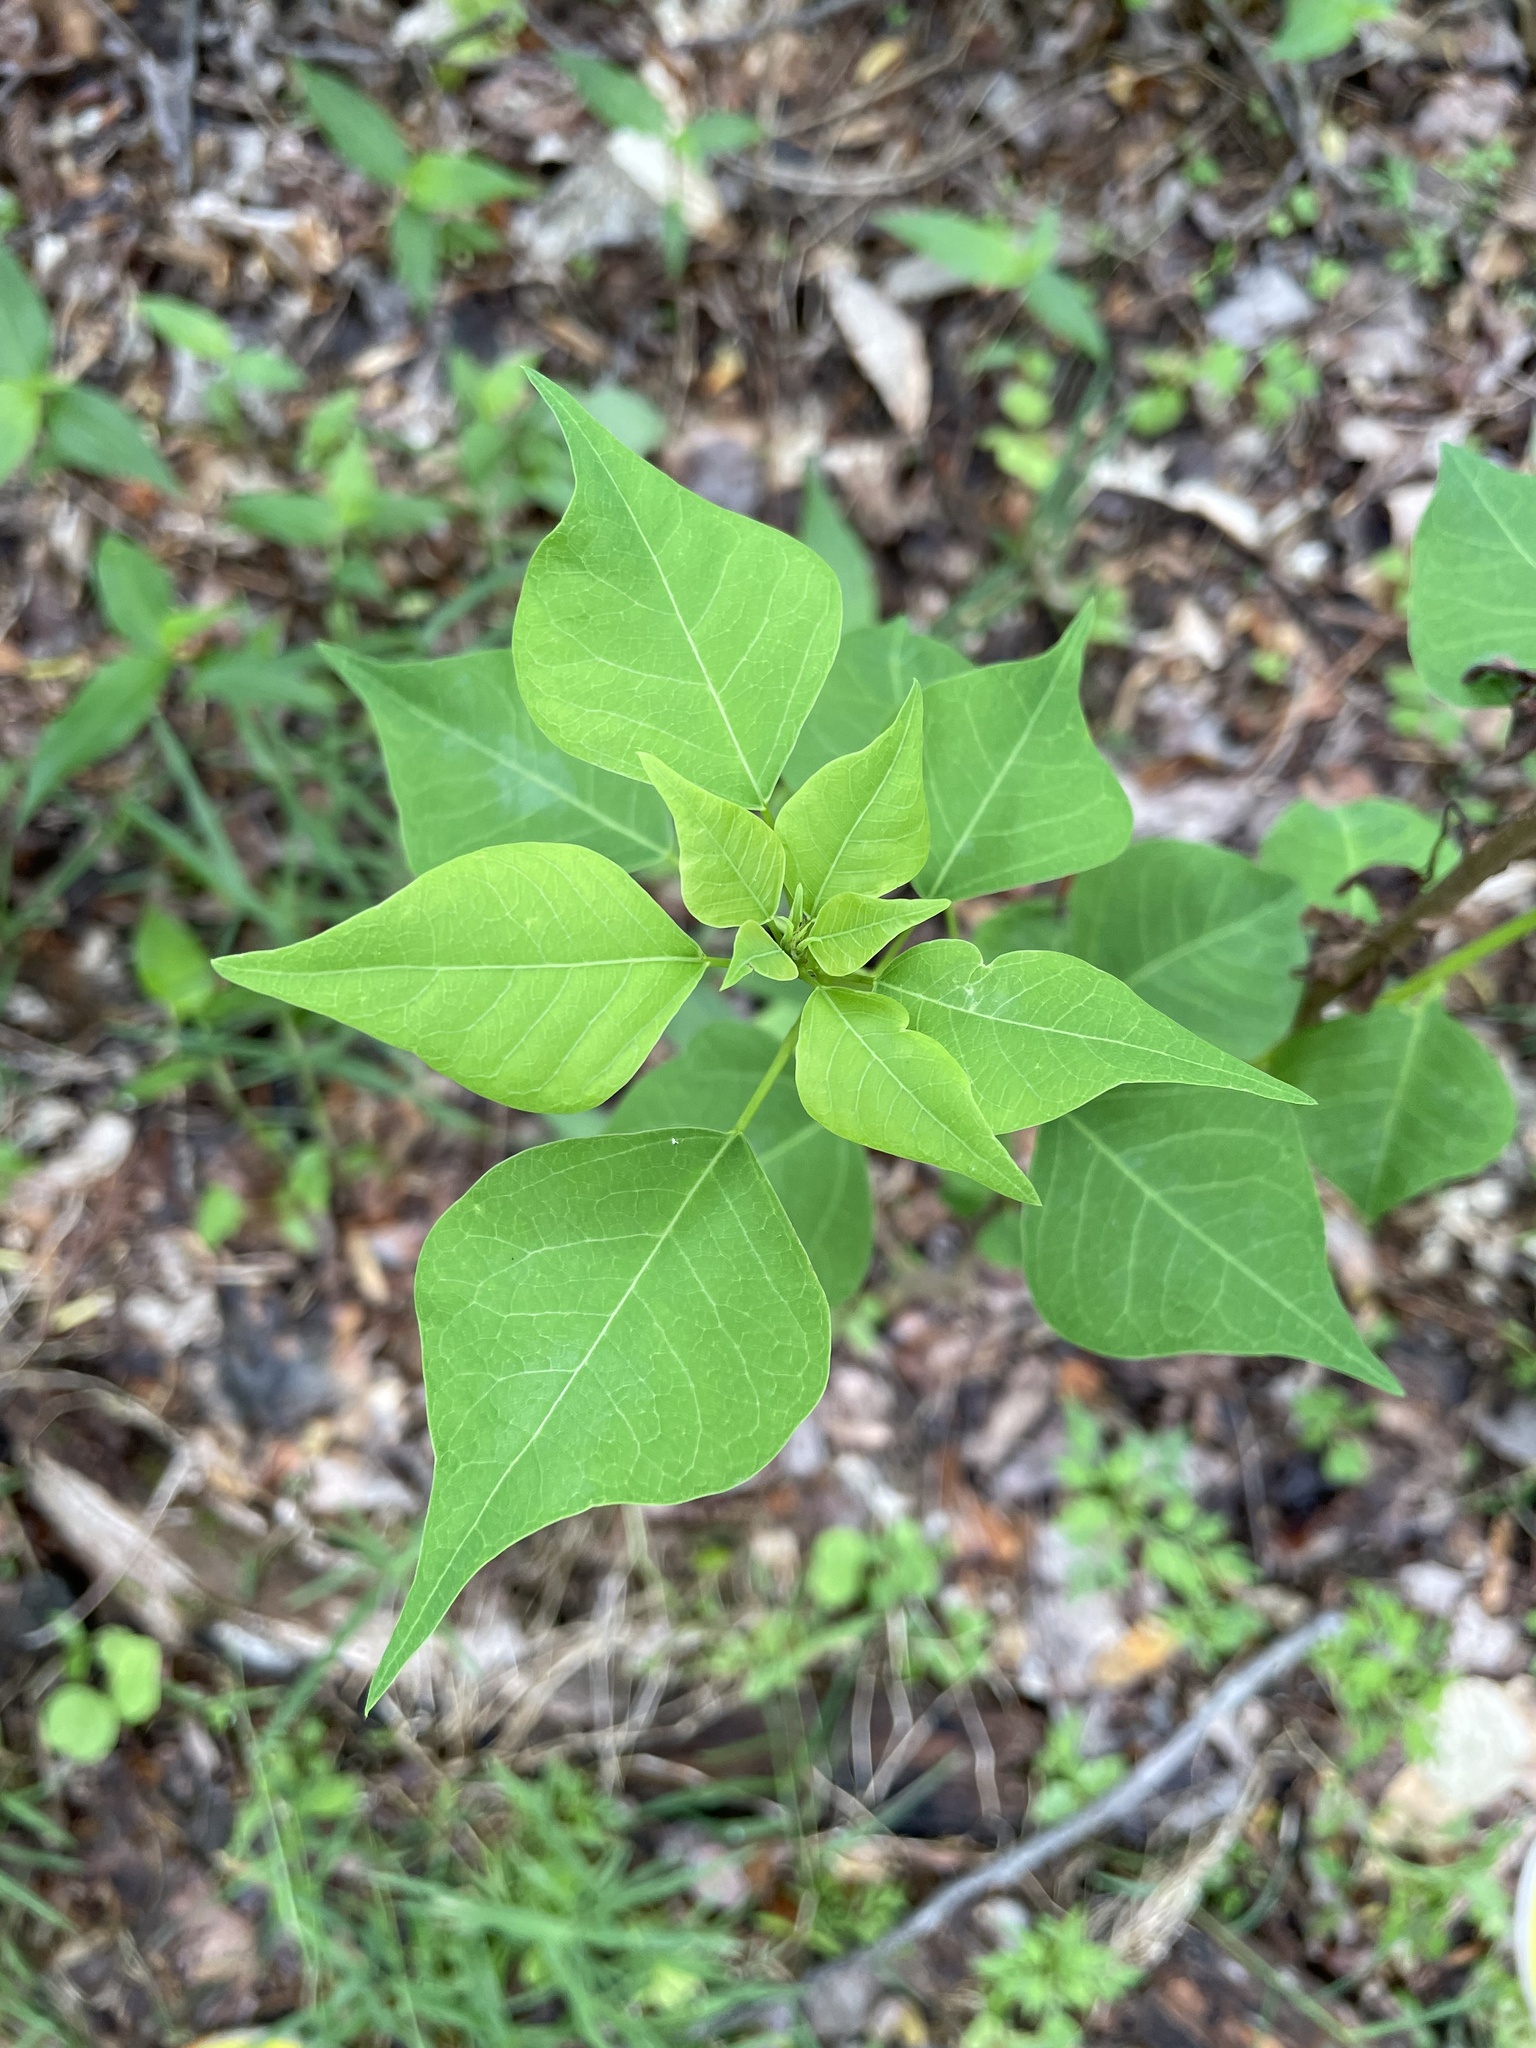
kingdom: Plantae
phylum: Tracheophyta
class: Magnoliopsida
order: Malpighiales
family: Euphorbiaceae
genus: Triadica
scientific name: Triadica sebifera
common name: Chinese tallow
